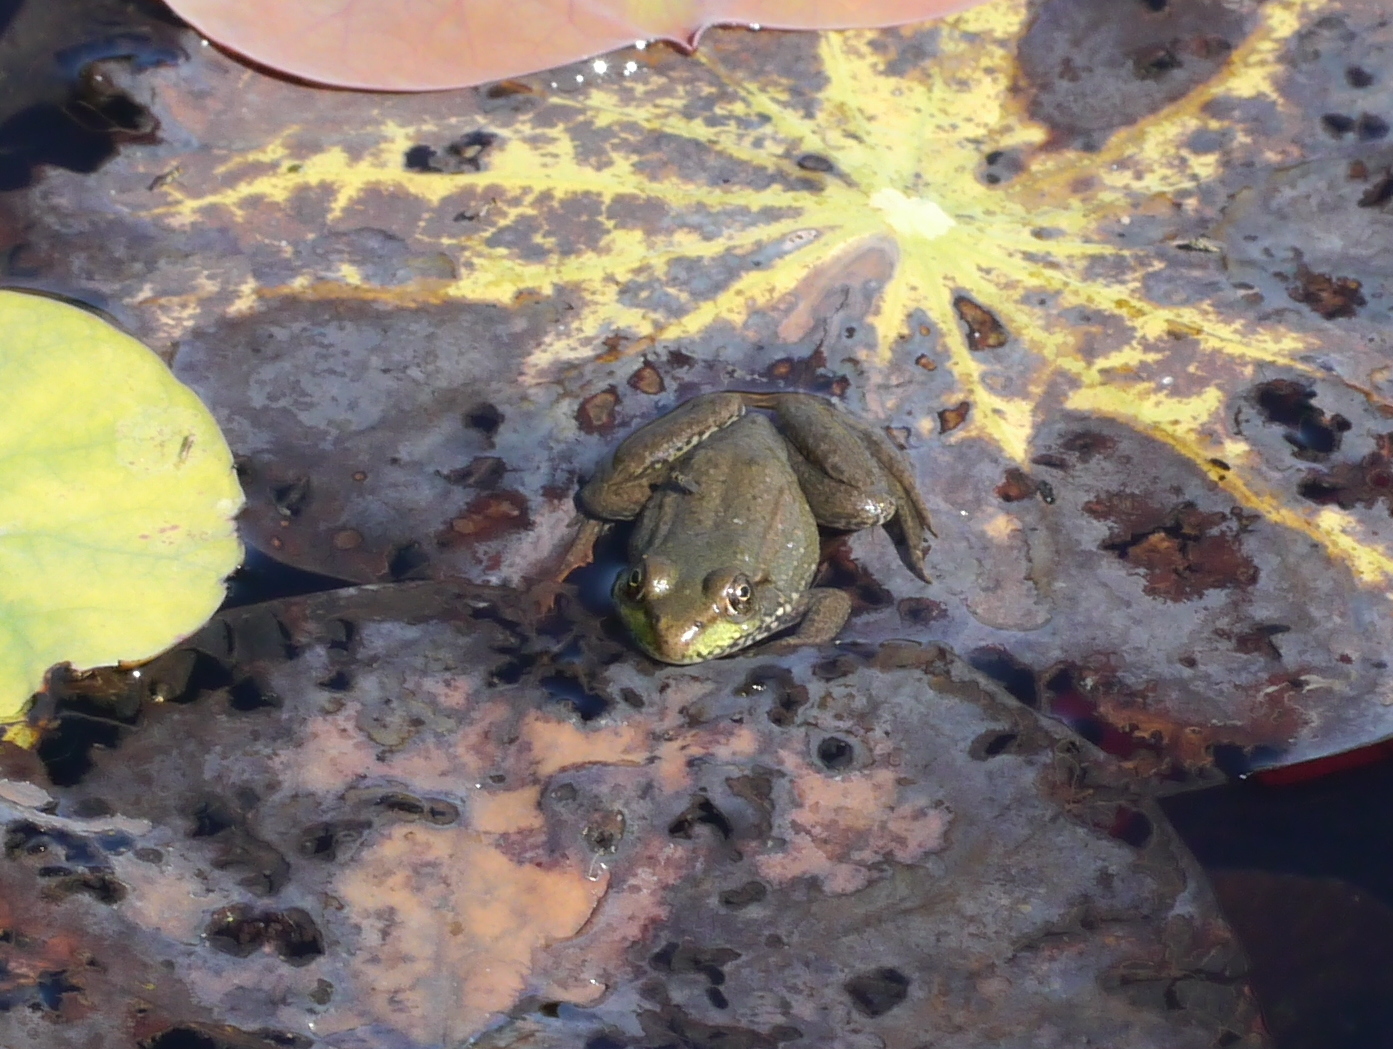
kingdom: Animalia
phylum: Chordata
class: Amphibia
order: Anura
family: Ranidae
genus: Lithobates
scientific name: Lithobates clamitans
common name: Green frog
